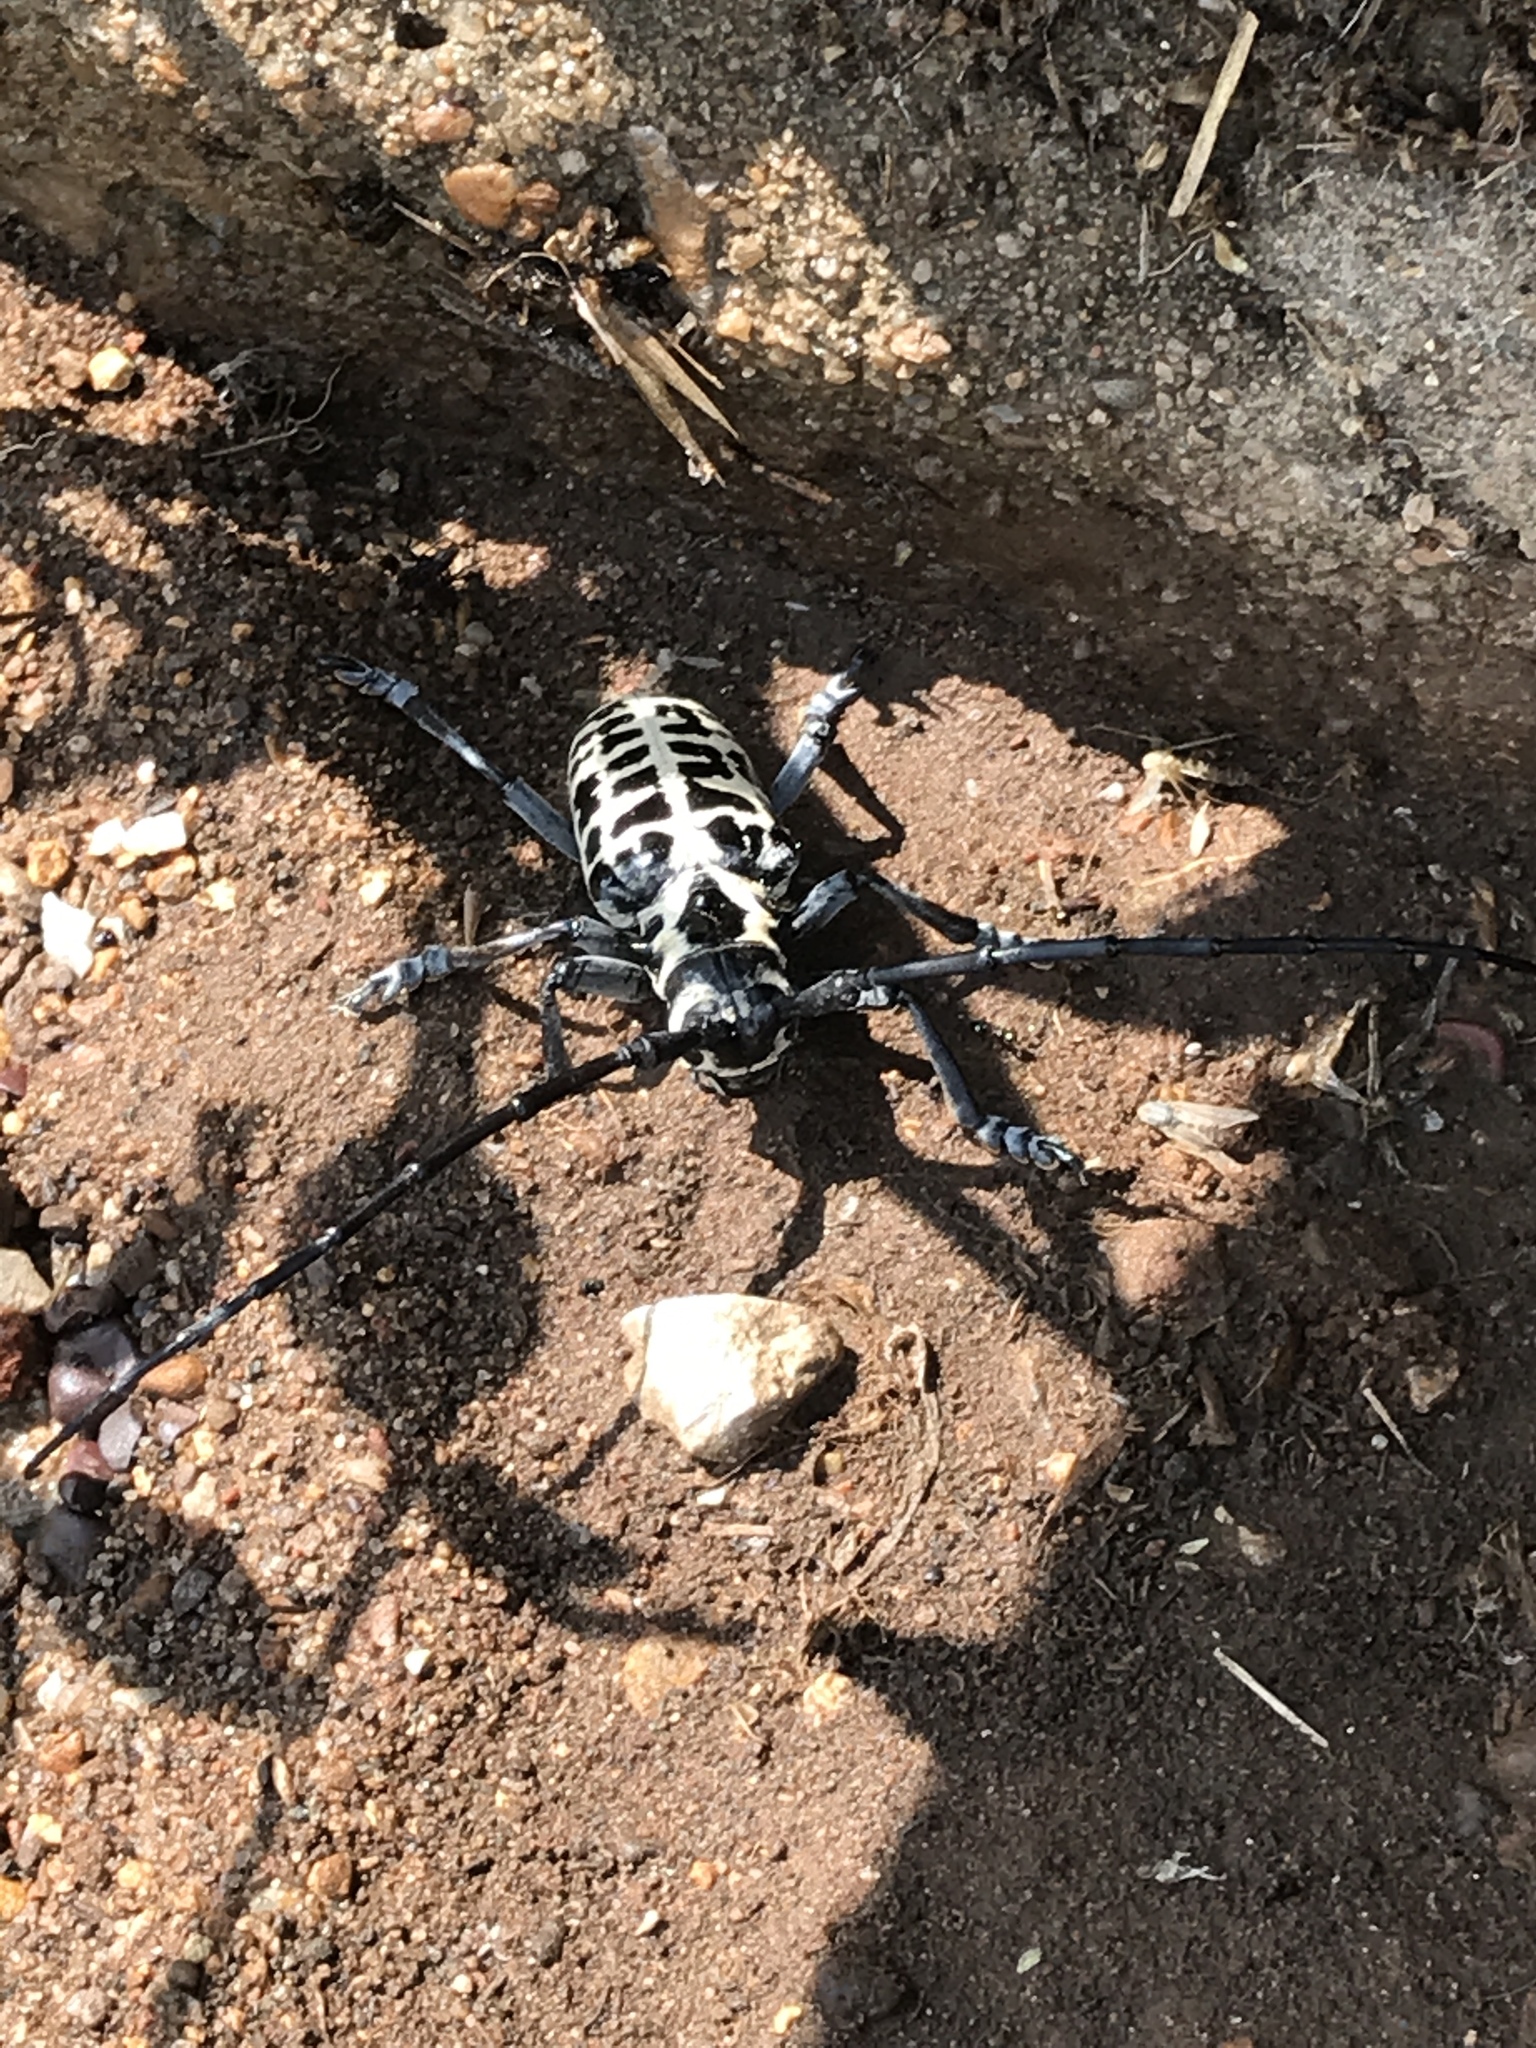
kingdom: Animalia
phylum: Arthropoda
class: Insecta
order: Coleoptera
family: Cerambycidae
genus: Plectrodera
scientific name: Plectrodera scalator
